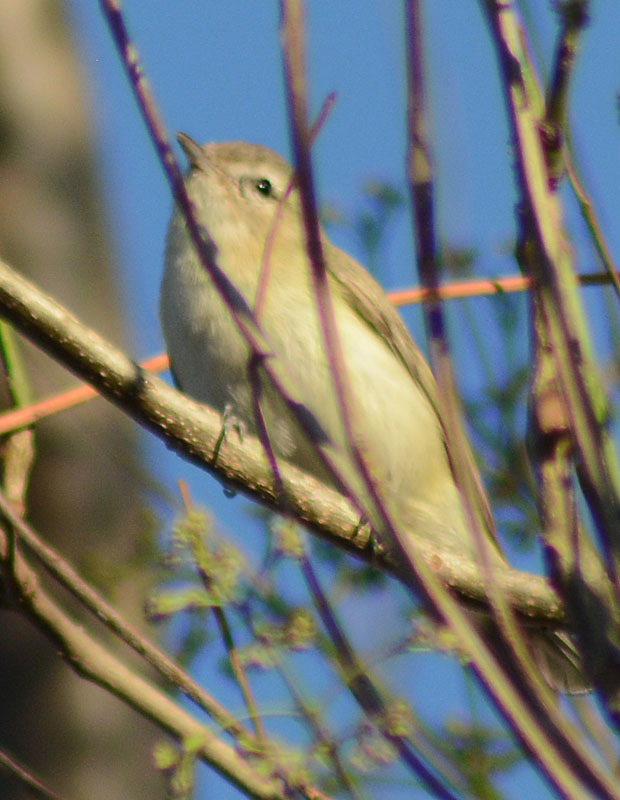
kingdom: Animalia
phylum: Chordata
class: Aves
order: Passeriformes
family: Vireonidae
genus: Vireo
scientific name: Vireo gilvus
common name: Warbling vireo
